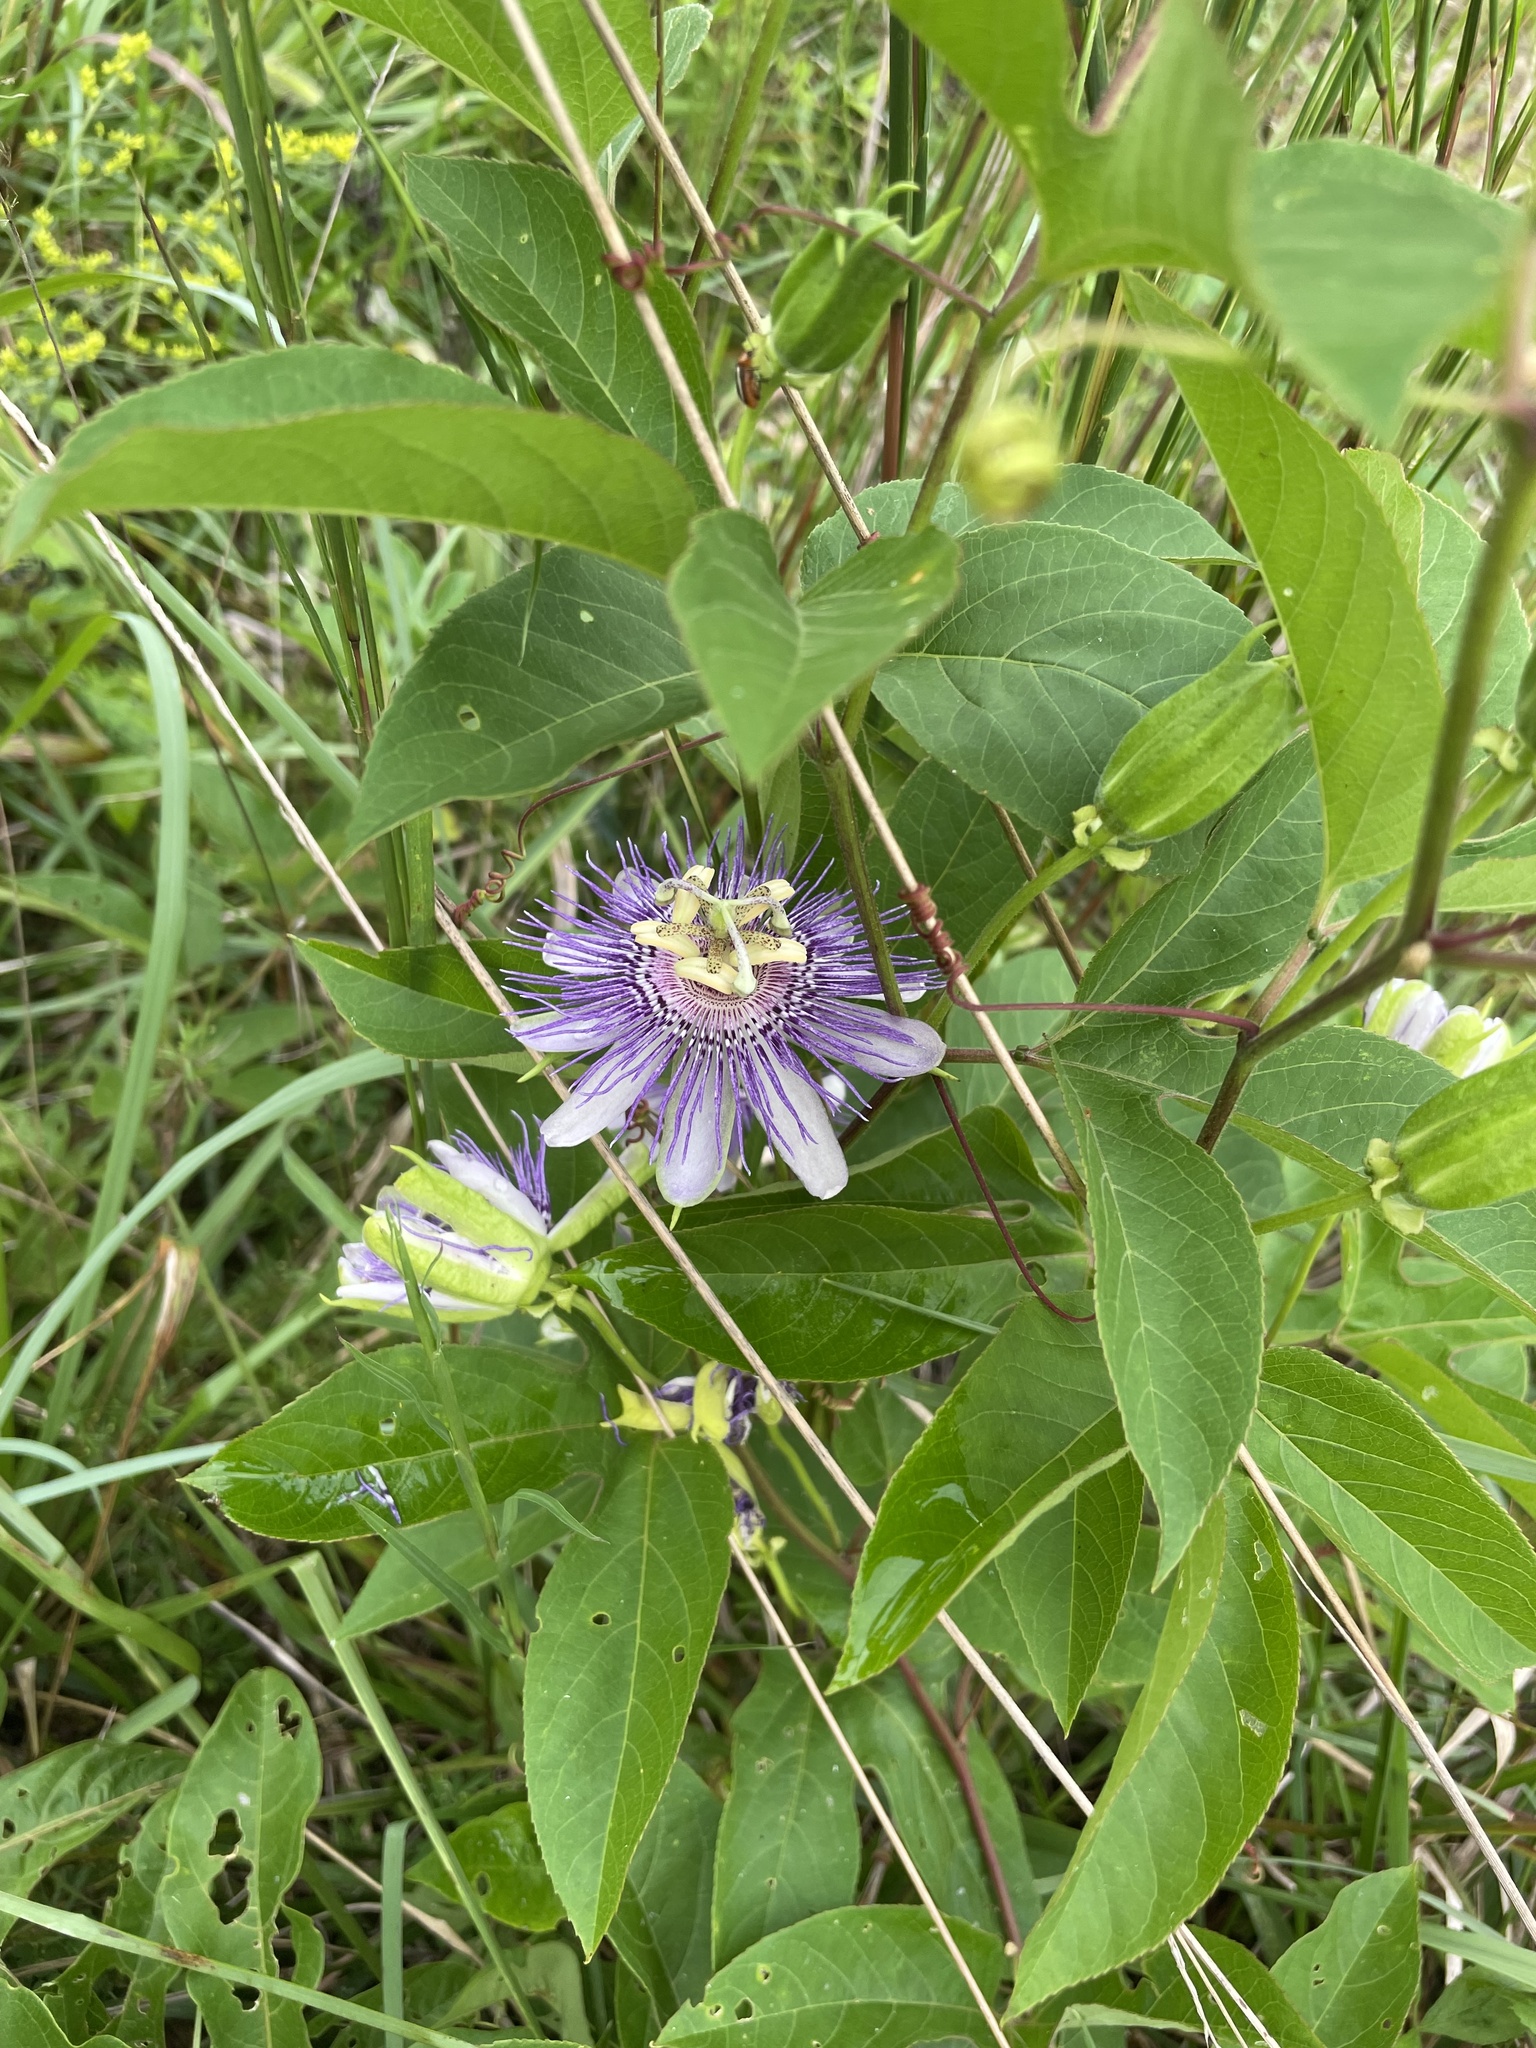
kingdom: Plantae
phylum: Tracheophyta
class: Magnoliopsida
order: Malpighiales
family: Passifloraceae
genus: Passiflora
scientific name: Passiflora incarnata
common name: Apricot-vine
